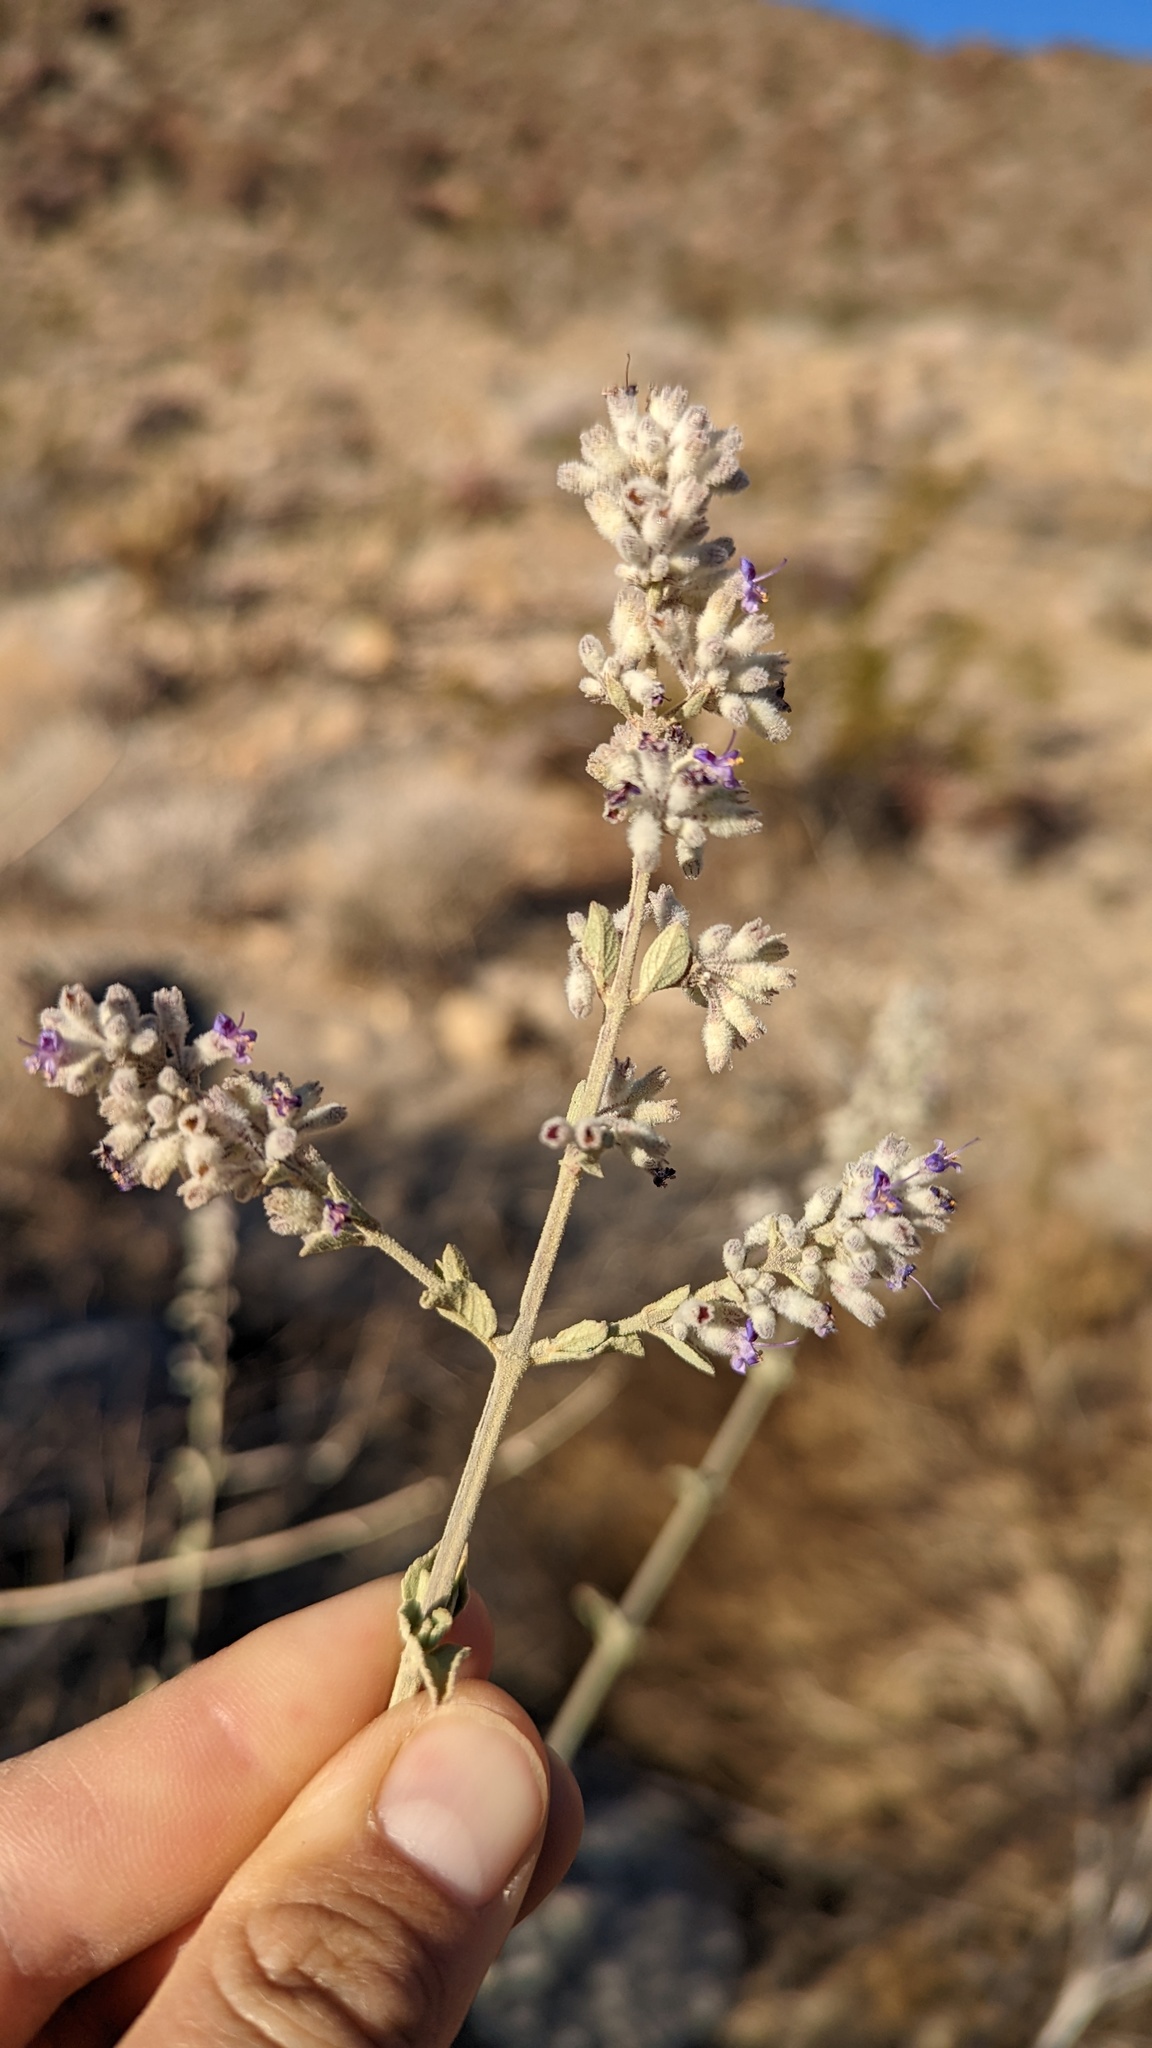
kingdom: Plantae
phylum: Tracheophyta
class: Magnoliopsida
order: Lamiales
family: Lamiaceae
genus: Condea
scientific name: Condea emoryi
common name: Chia
